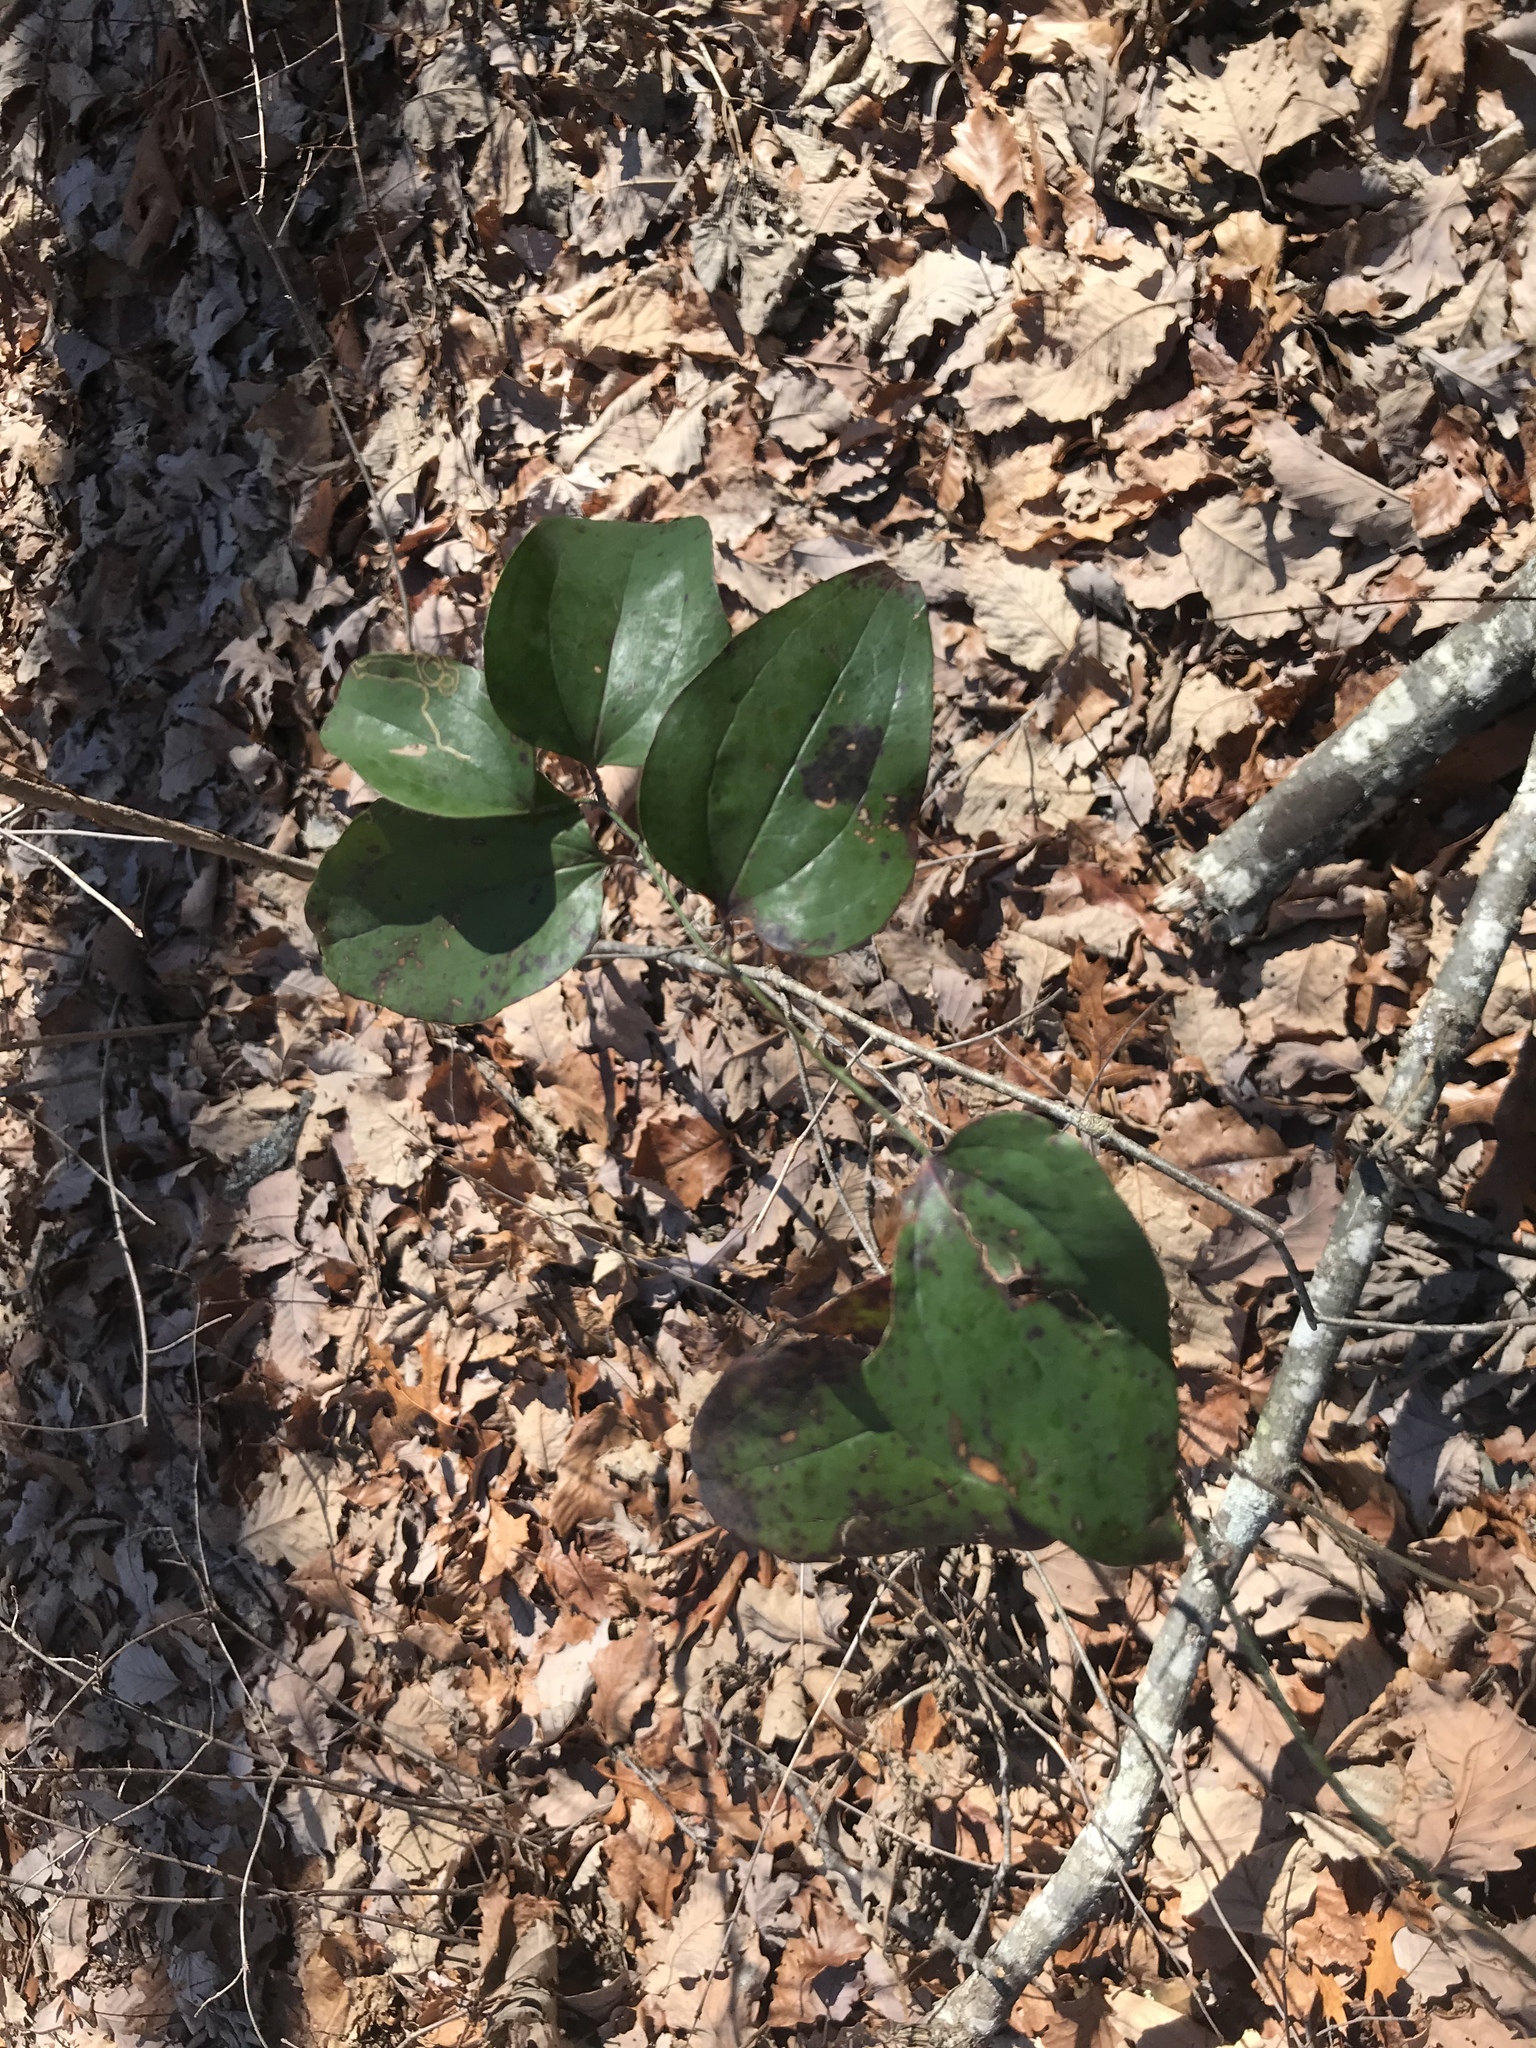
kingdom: Plantae
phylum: Tracheophyta
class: Liliopsida
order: Liliales
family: Smilacaceae
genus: Smilax
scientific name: Smilax glauca
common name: Cat greenbrier
